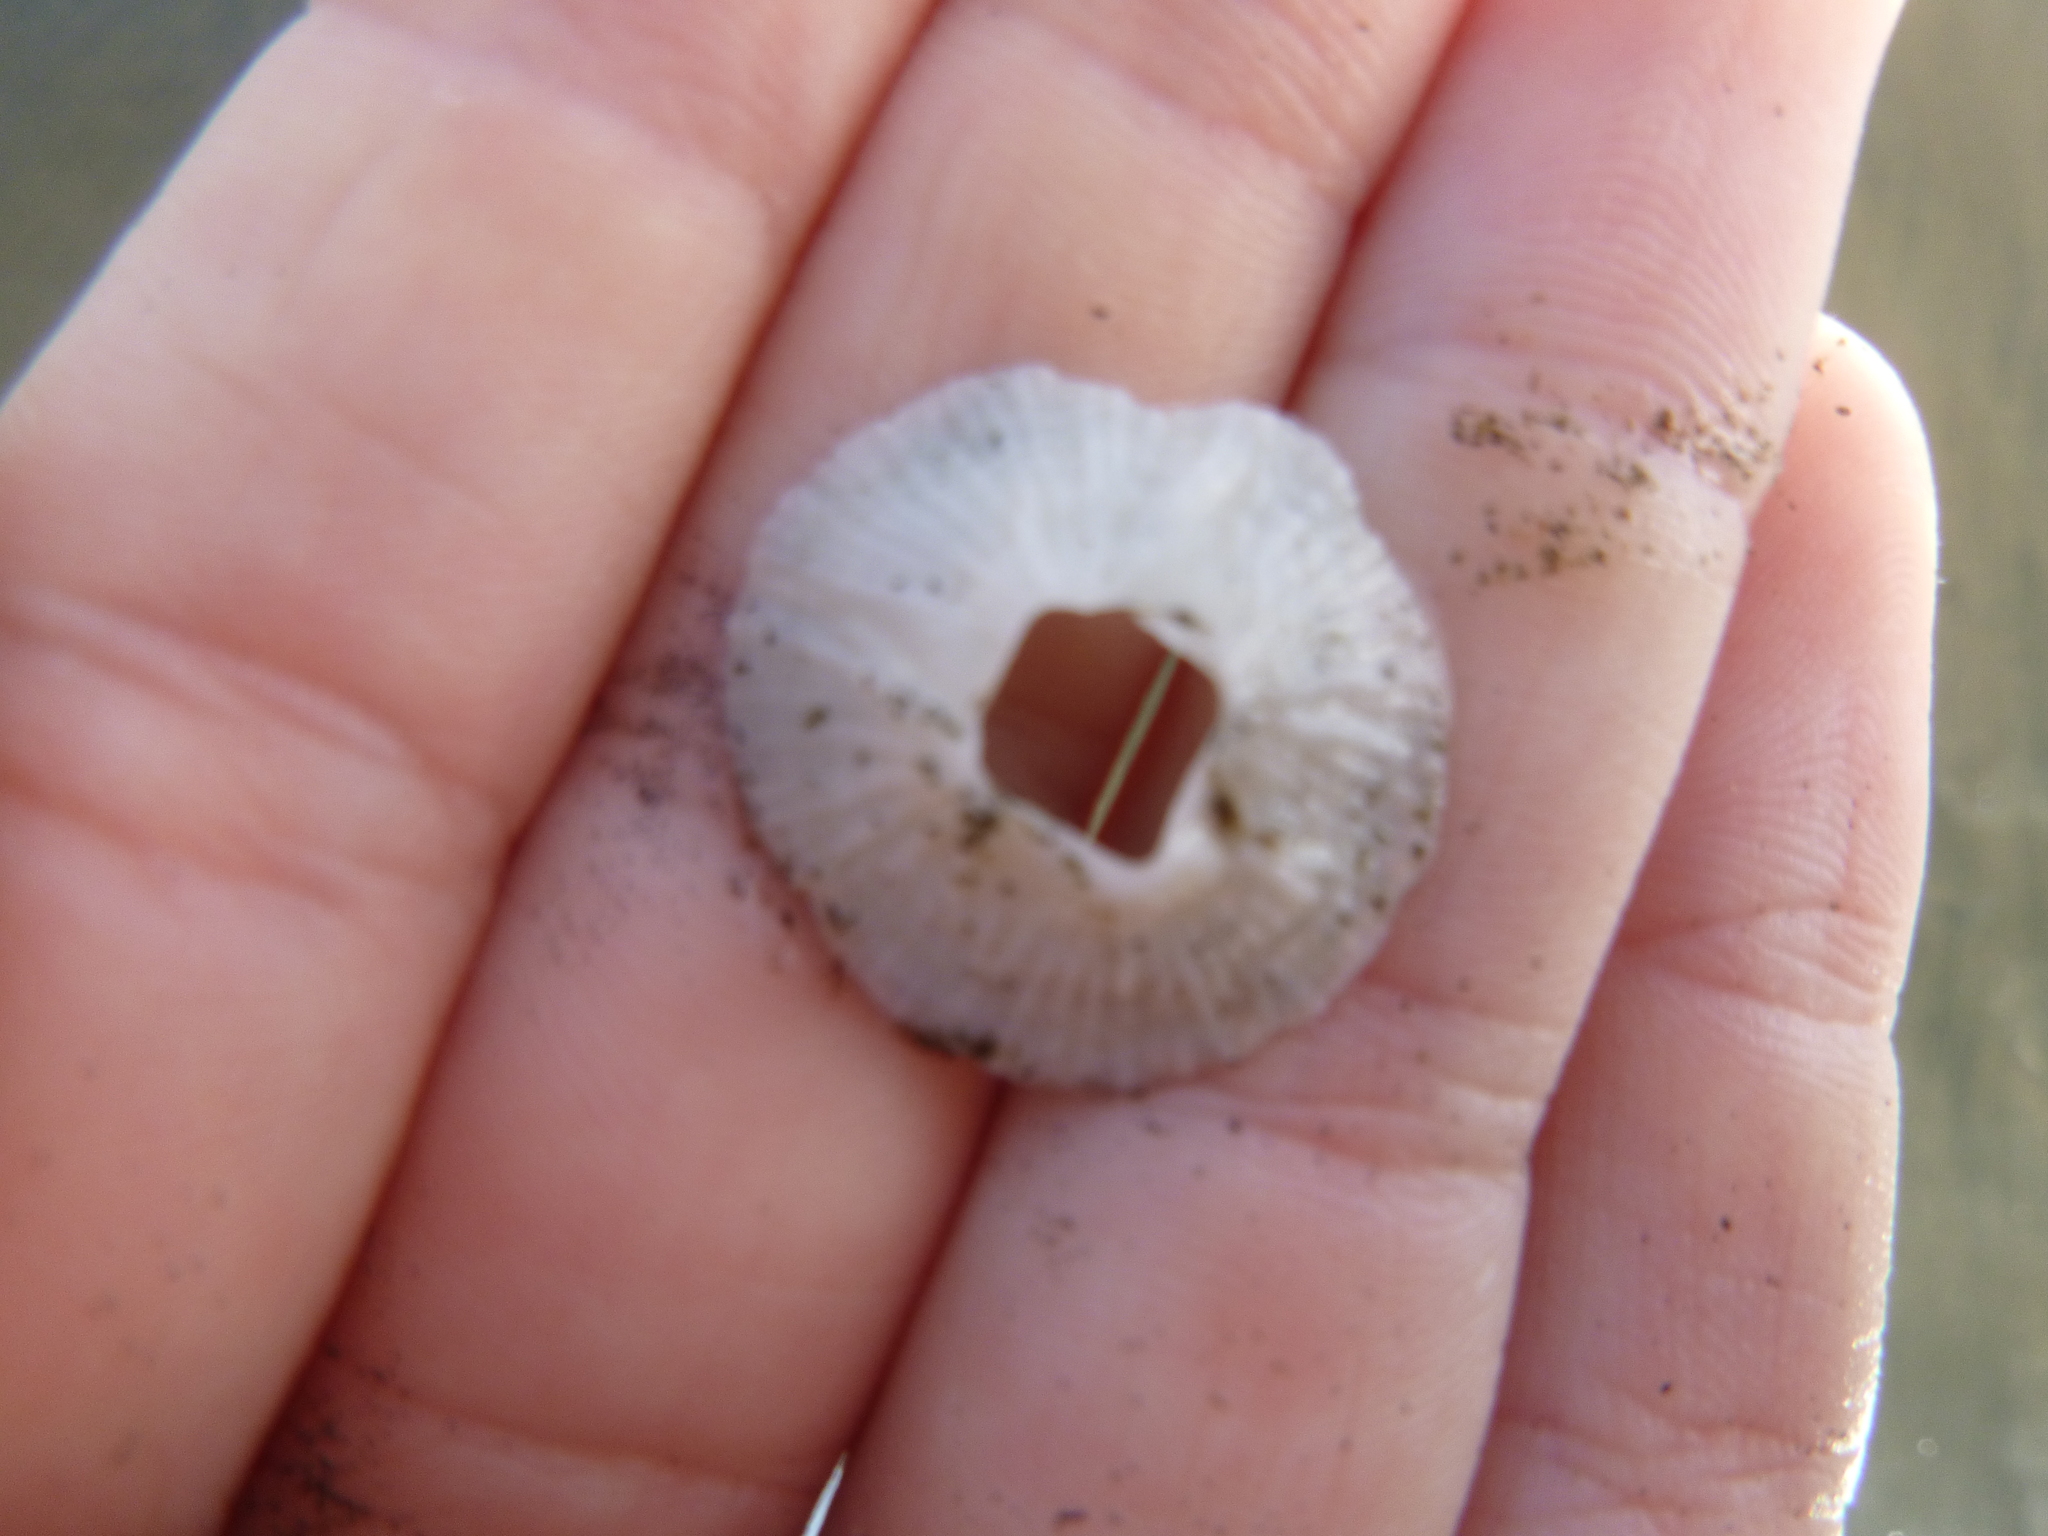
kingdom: Animalia
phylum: Arthropoda
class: Maxillopoda
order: Sessilia
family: Tetraclitidae
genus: Tetraclitella
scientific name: Tetraclitella depressa
